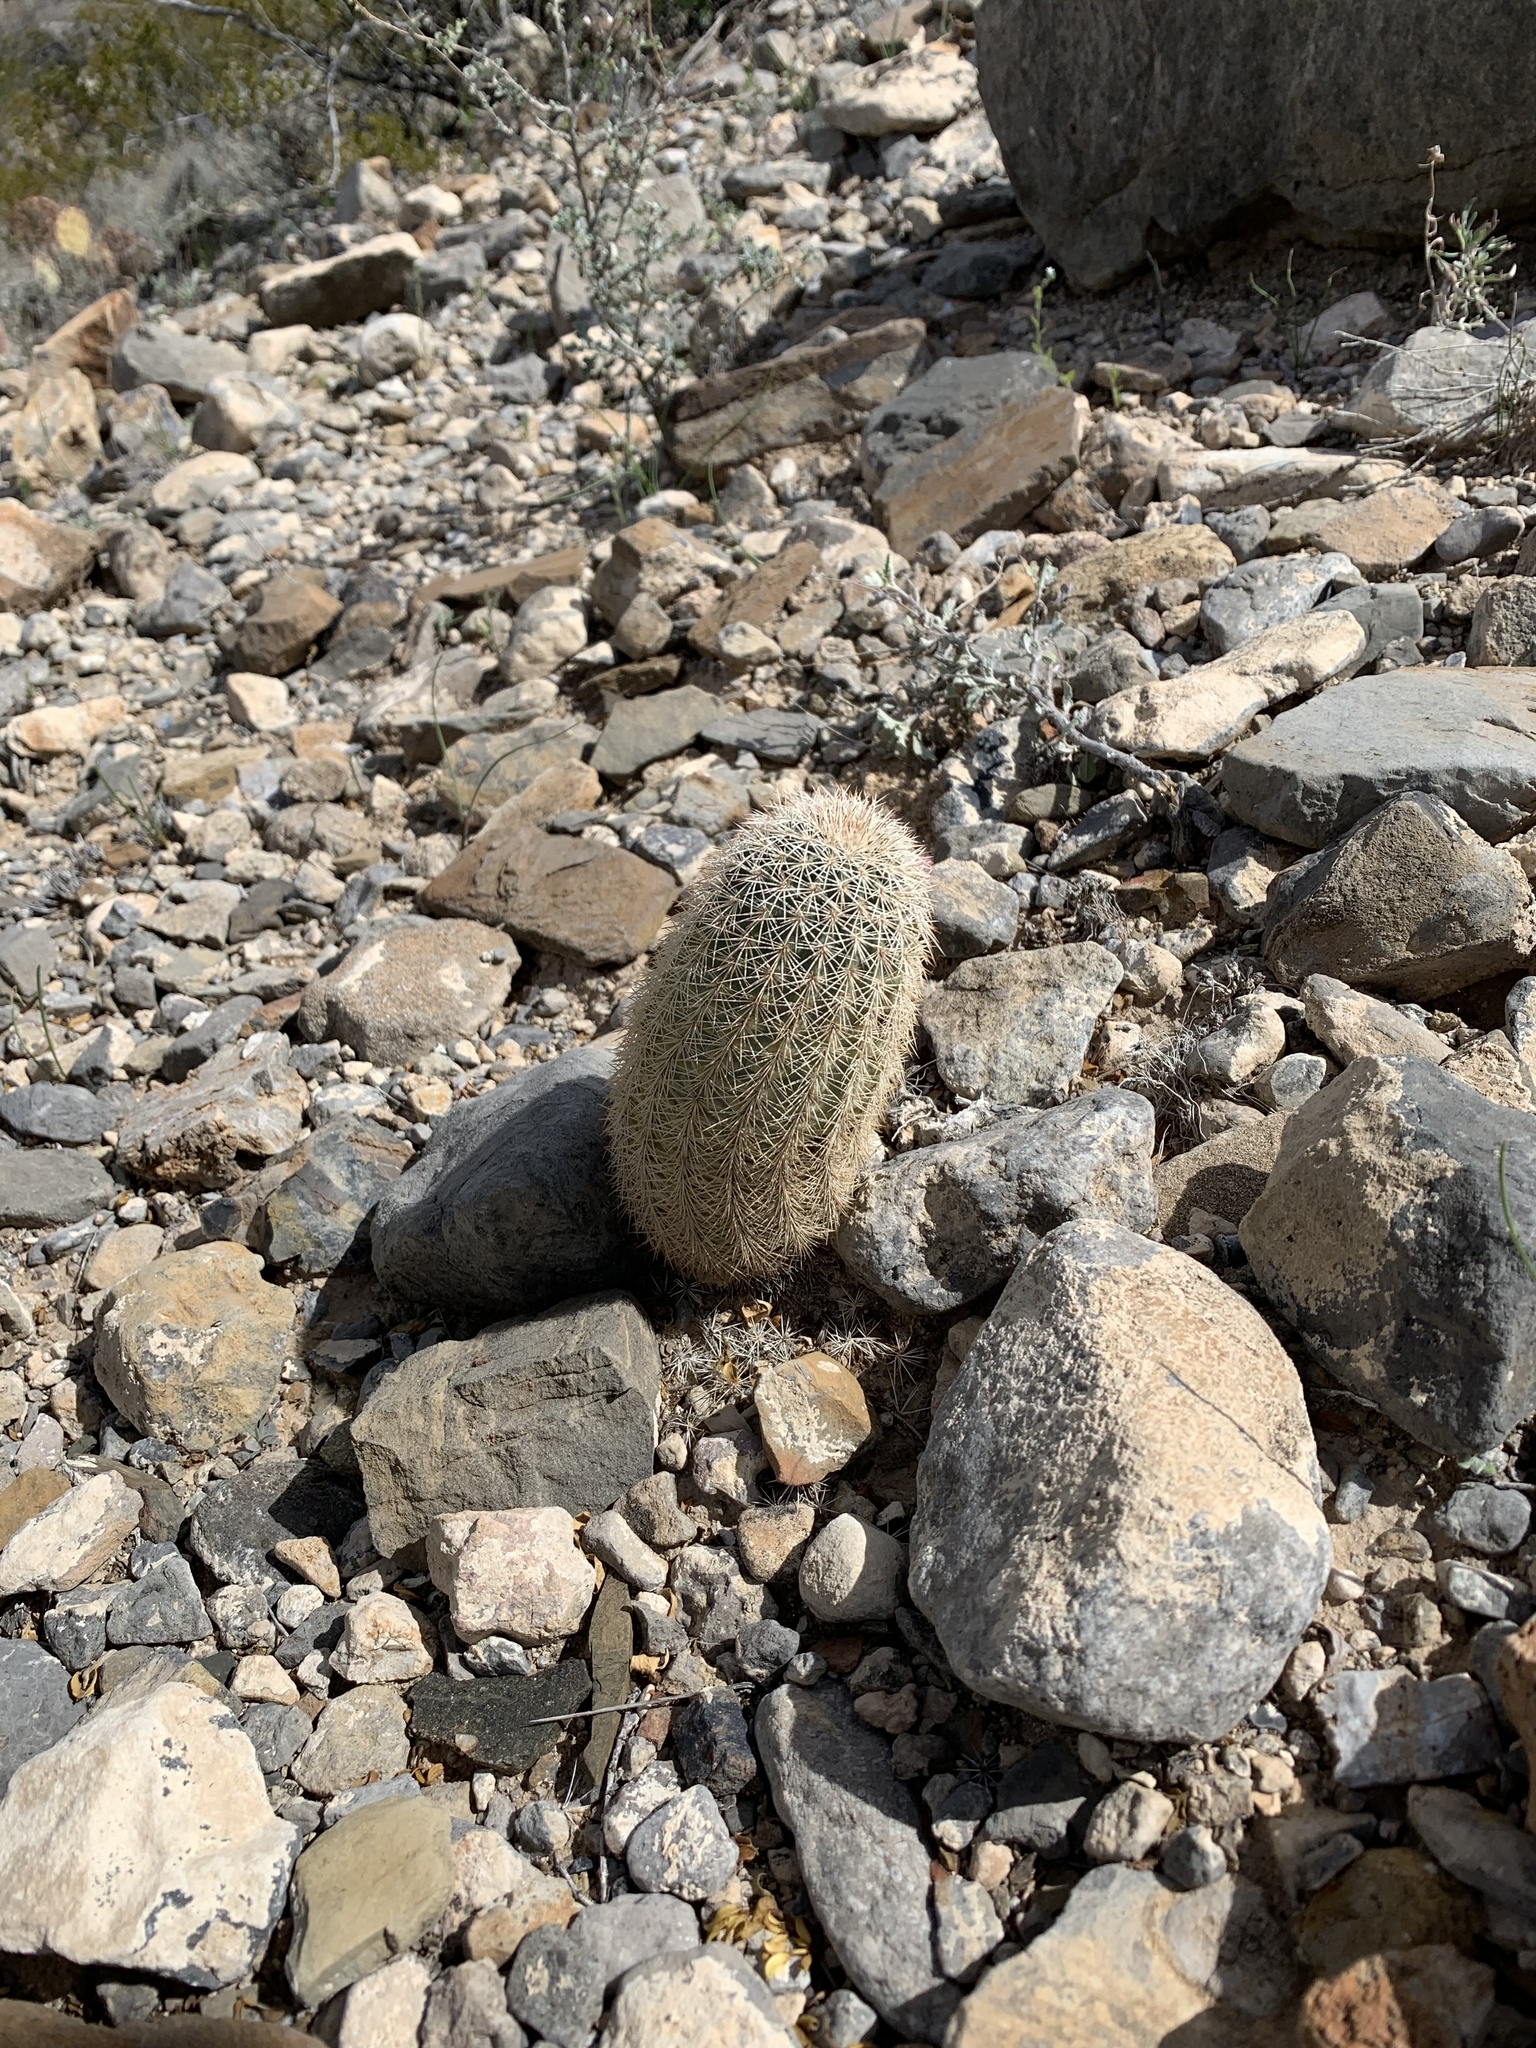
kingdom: Plantae
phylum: Tracheophyta
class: Magnoliopsida
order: Caryophyllales
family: Cactaceae
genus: Echinocereus
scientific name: Echinocereus dasyacanthus
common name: Spiny hedgehog cactus
